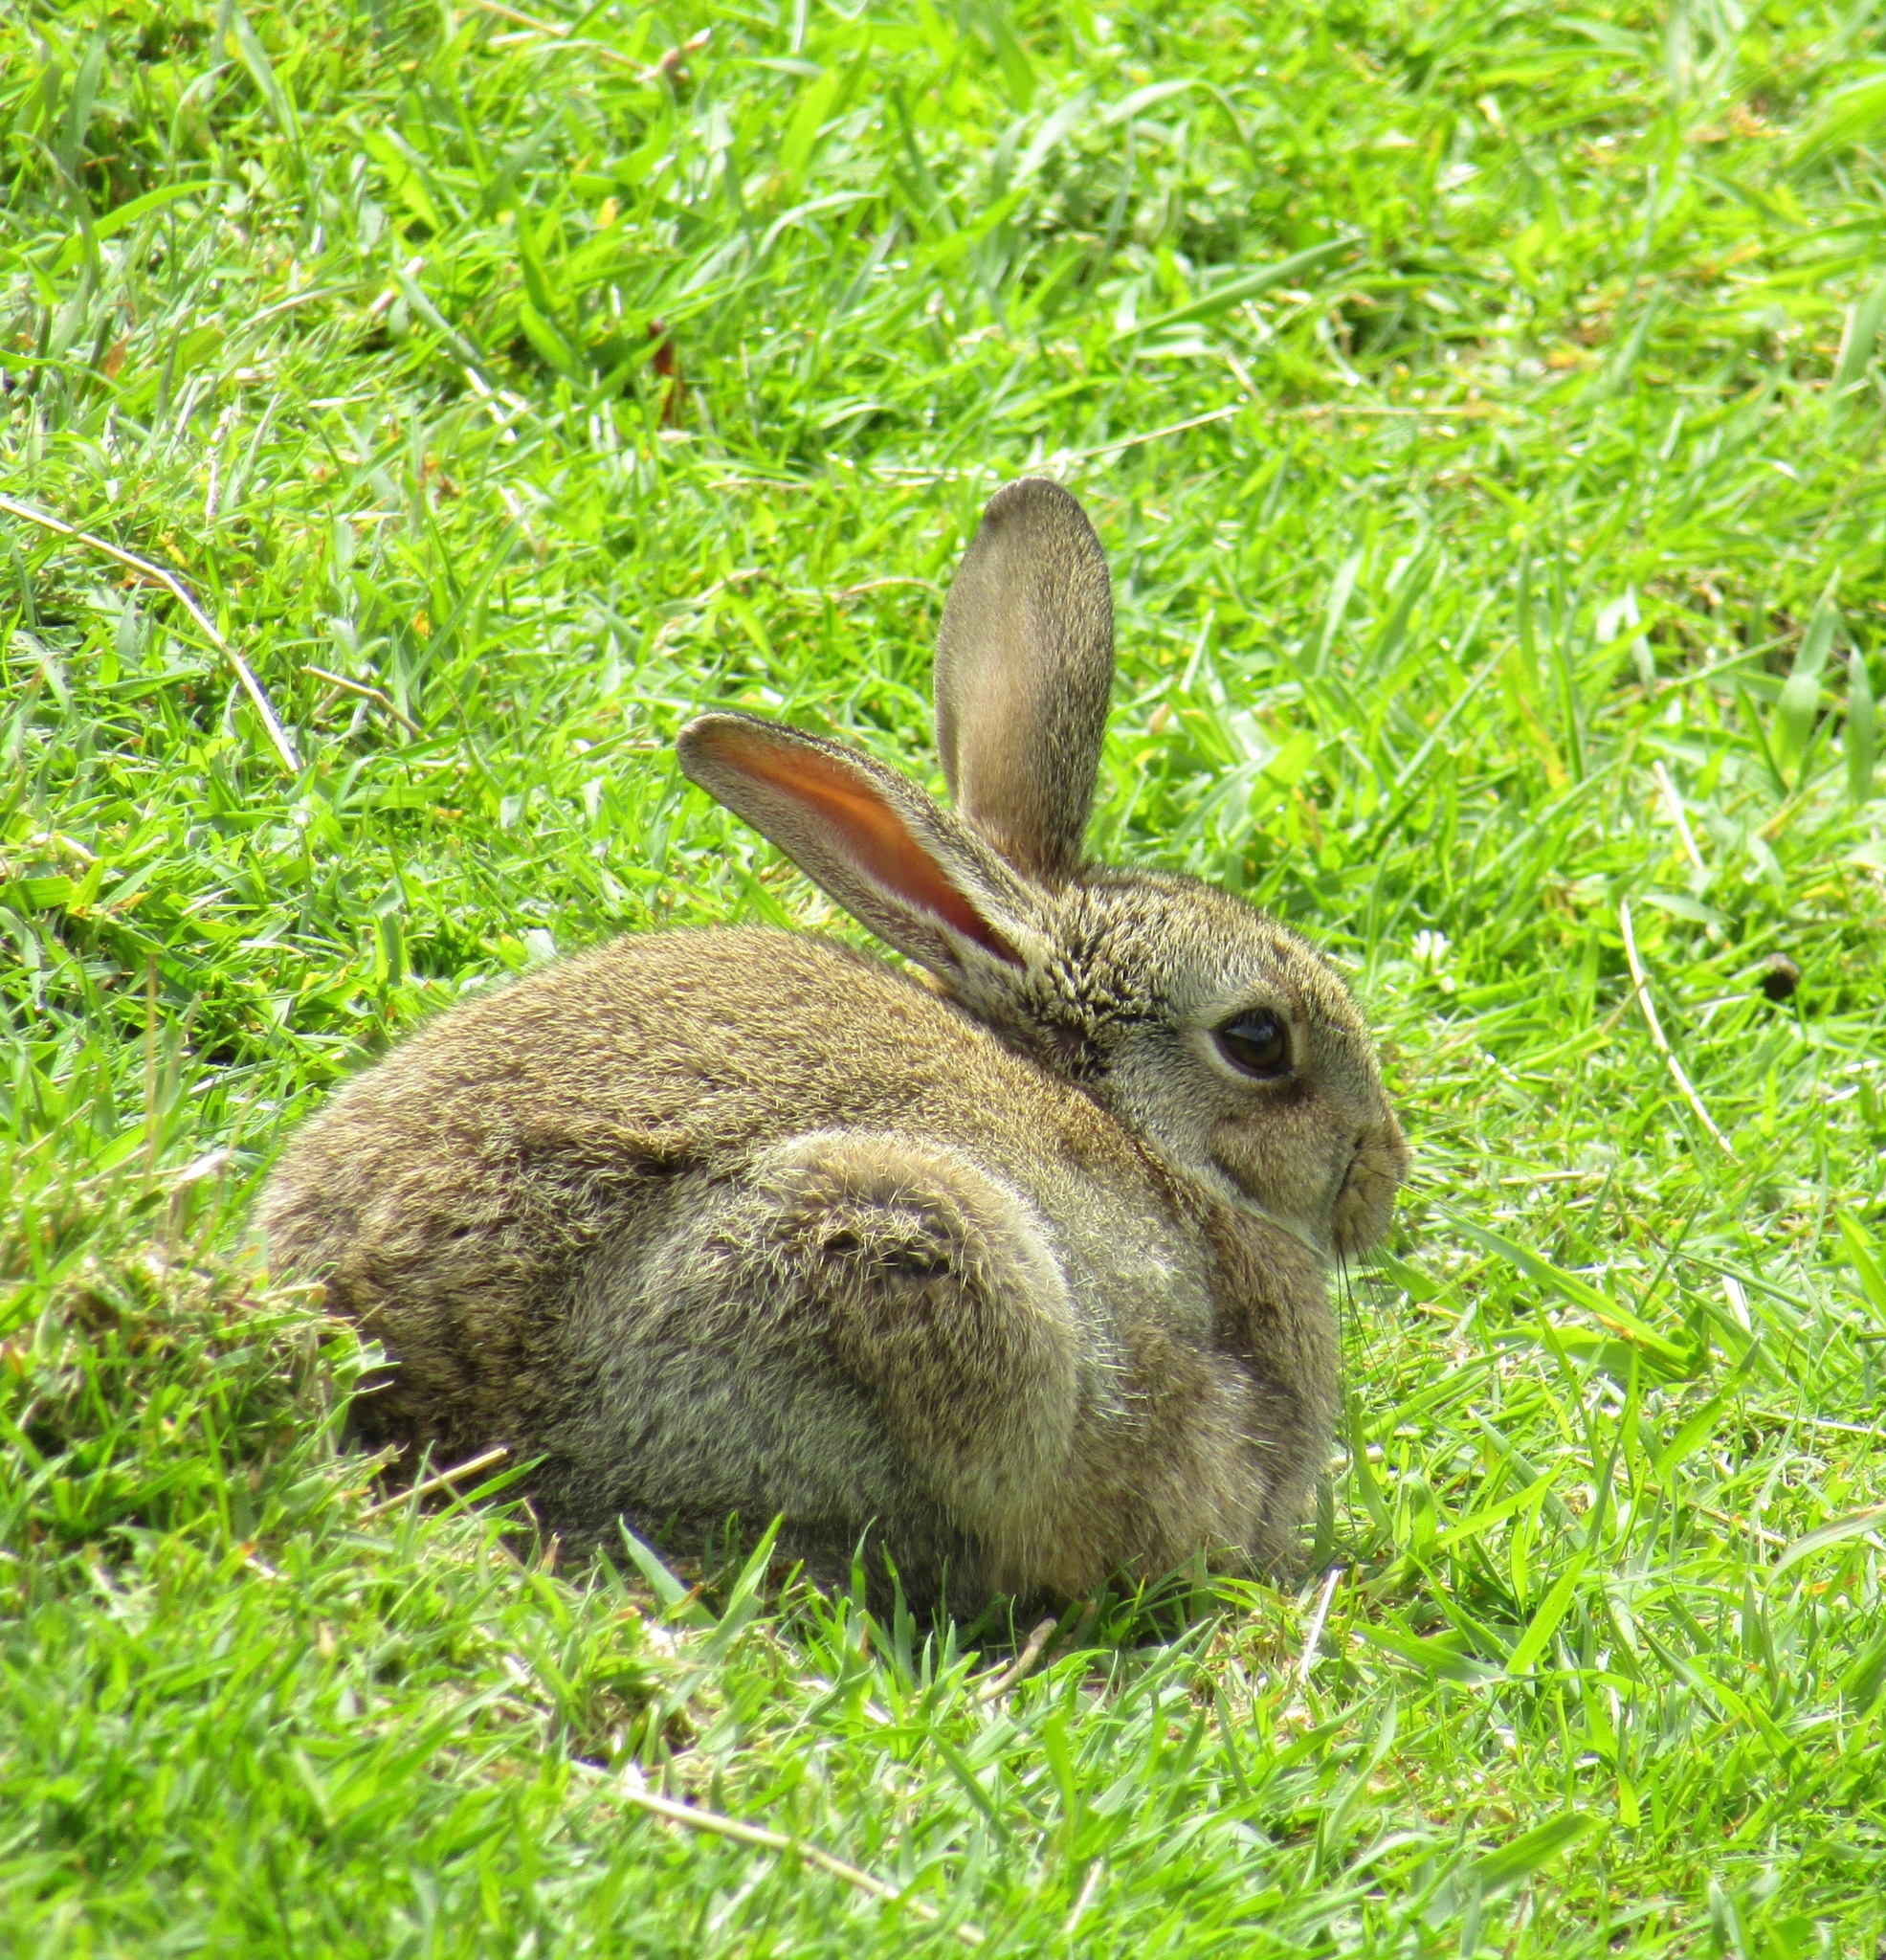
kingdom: Animalia
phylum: Chordata
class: Mammalia
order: Lagomorpha
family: Leporidae
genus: Oryctolagus
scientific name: Oryctolagus cuniculus
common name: European rabbit
